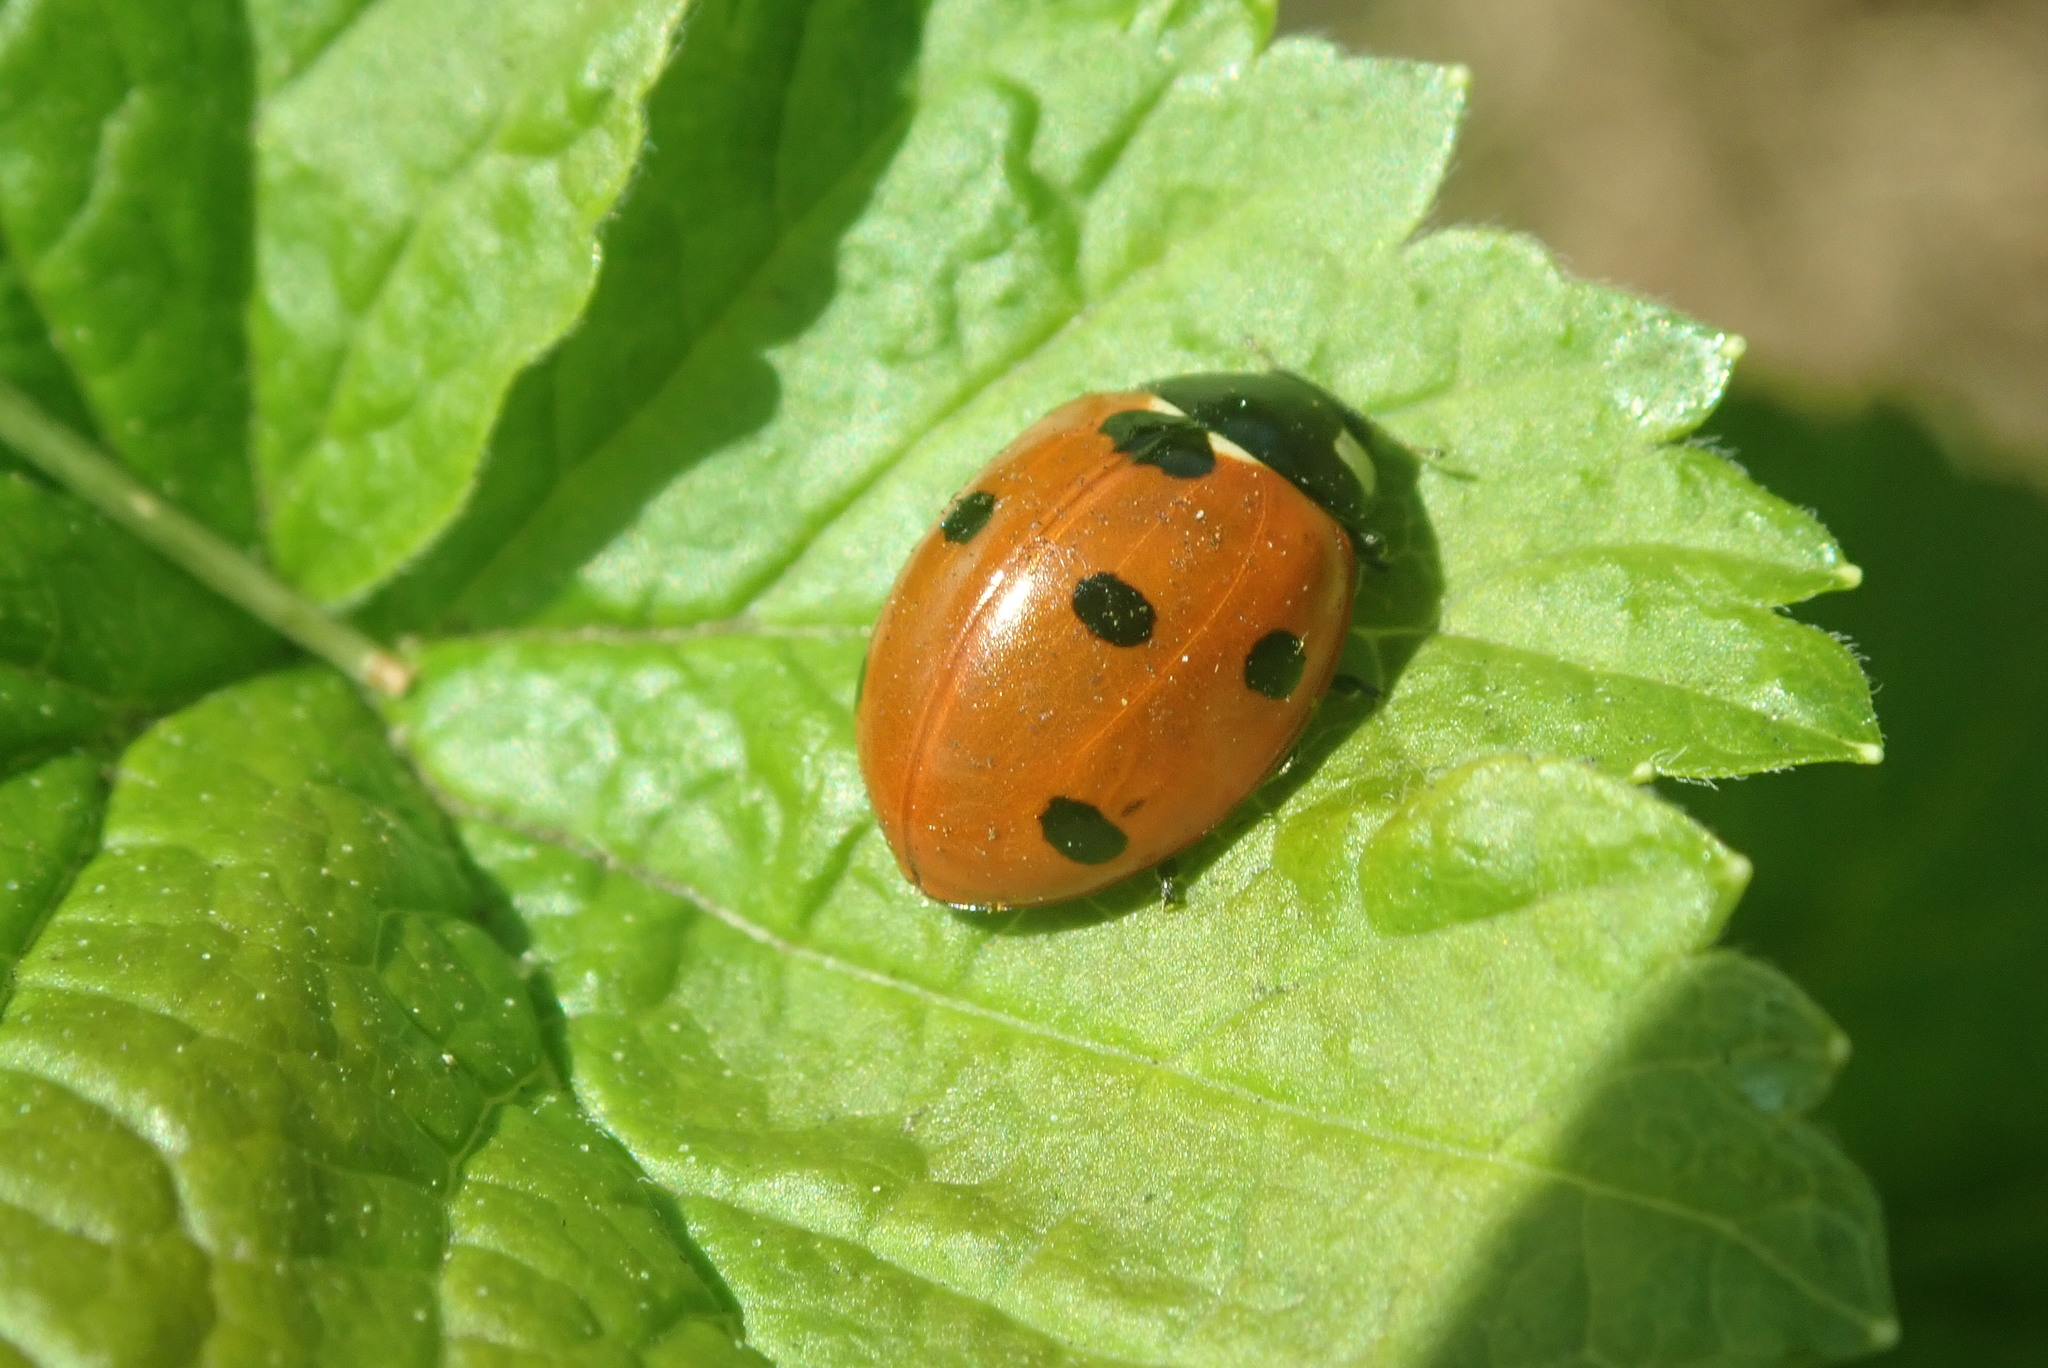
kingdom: Animalia
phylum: Arthropoda
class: Insecta
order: Coleoptera
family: Coccinellidae
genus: Coccinella
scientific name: Coccinella septempunctata
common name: Sevenspotted lady beetle
